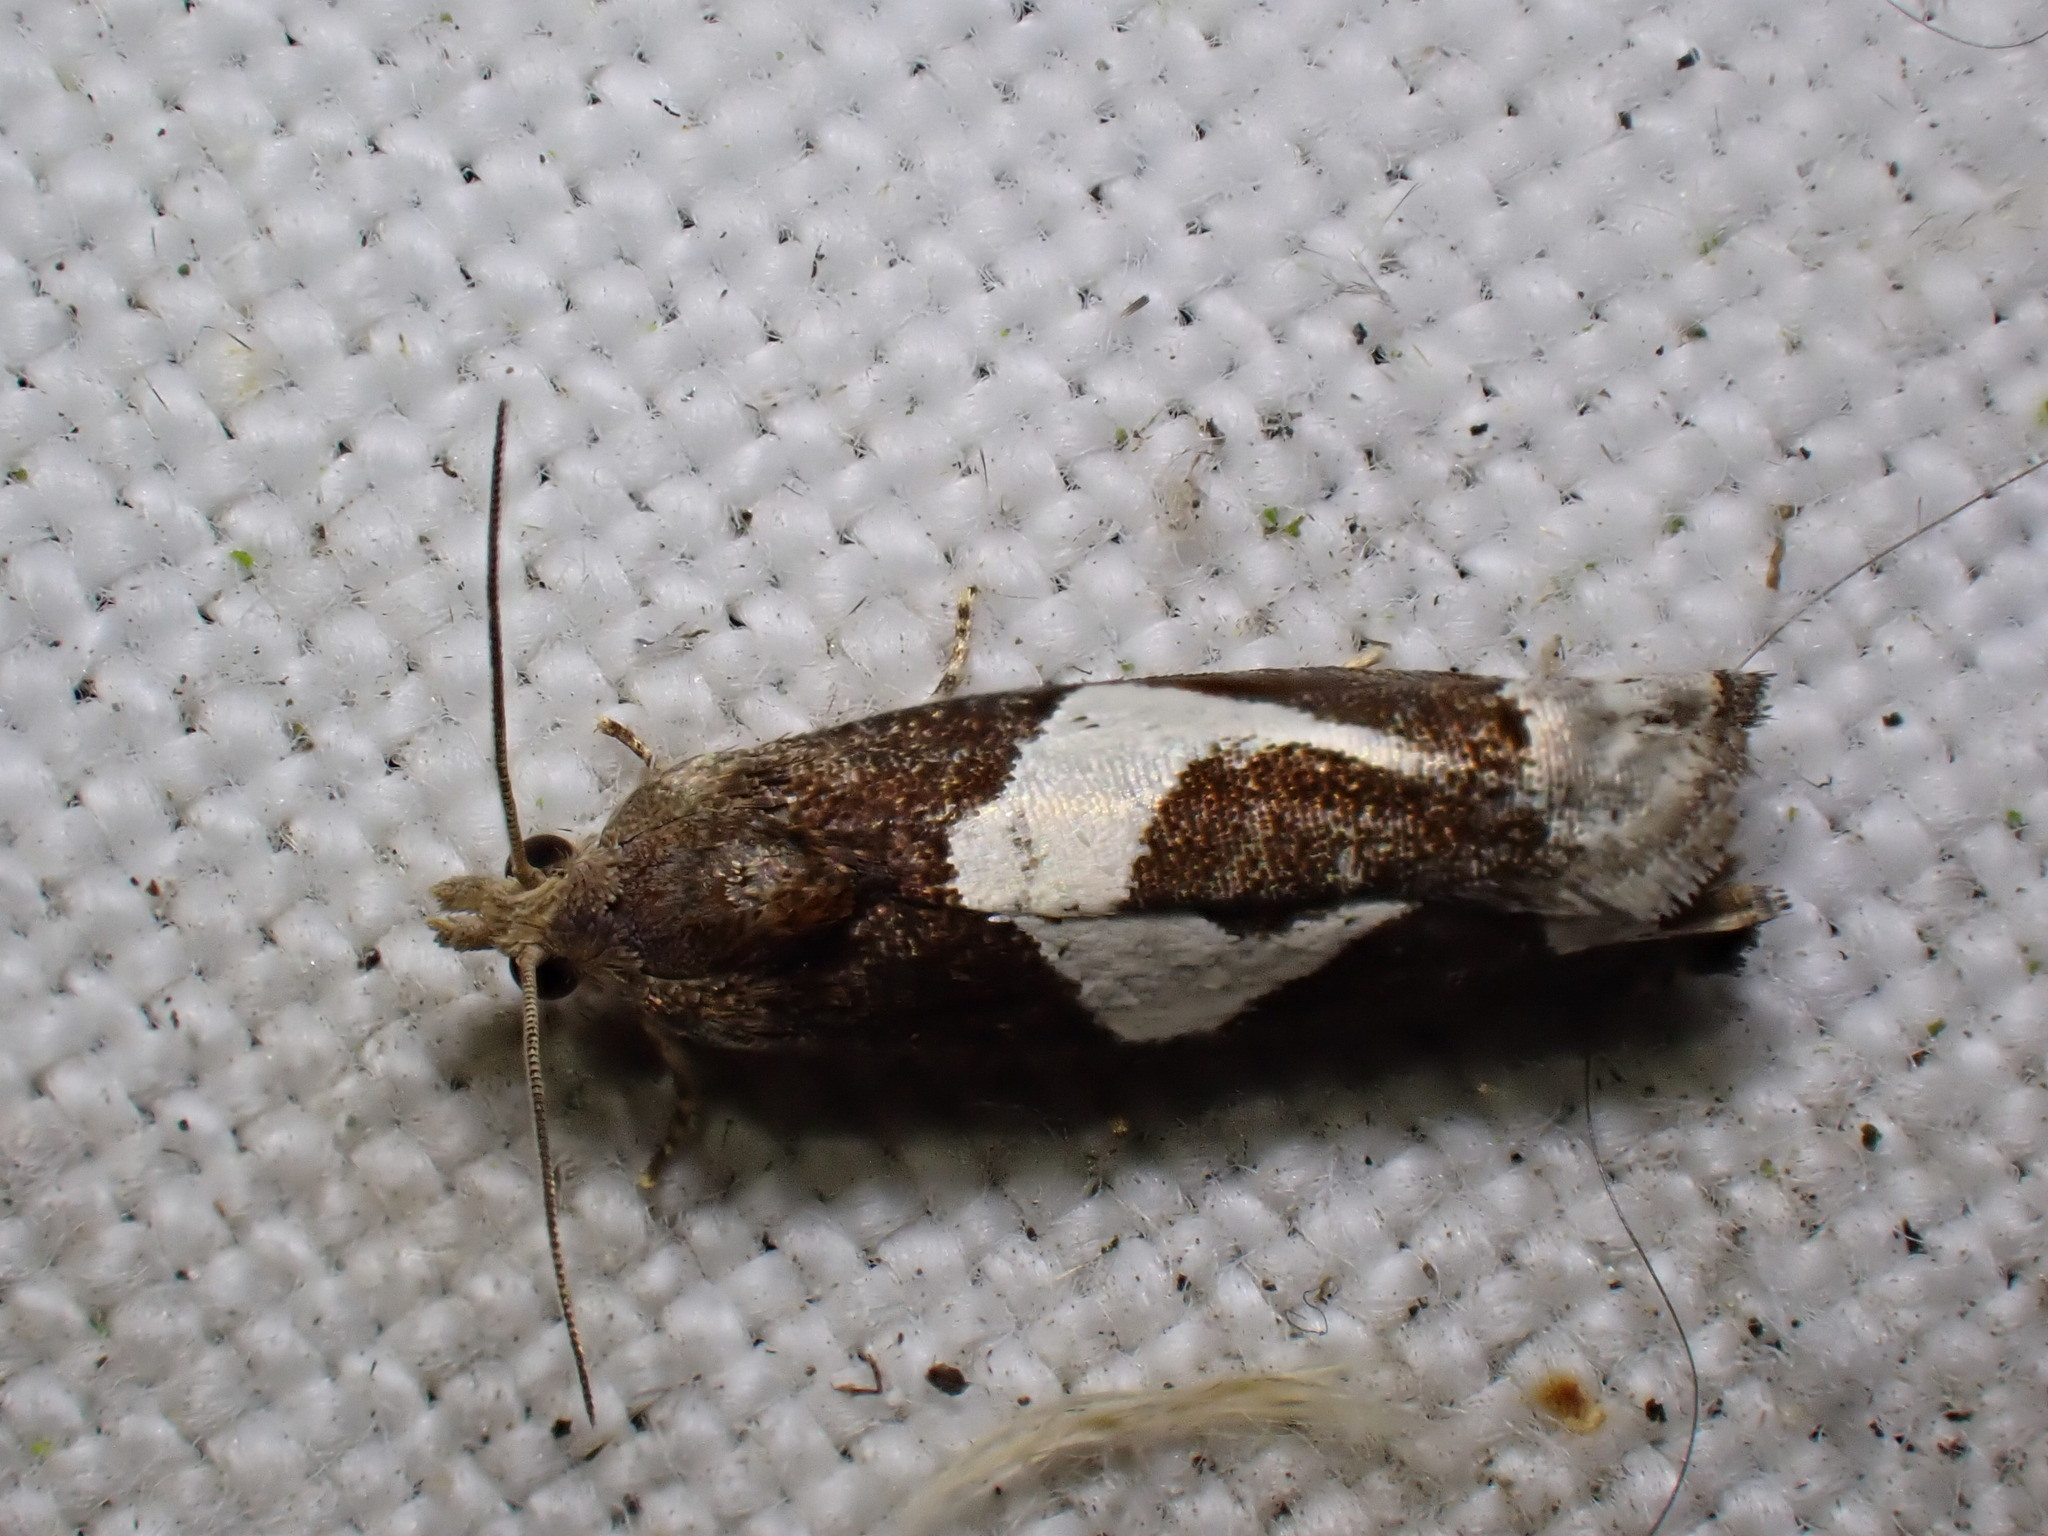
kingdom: Animalia
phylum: Arthropoda
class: Insecta
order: Lepidoptera
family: Tortricidae
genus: Epiblema
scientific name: Epiblema foenella
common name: White-foot bell
